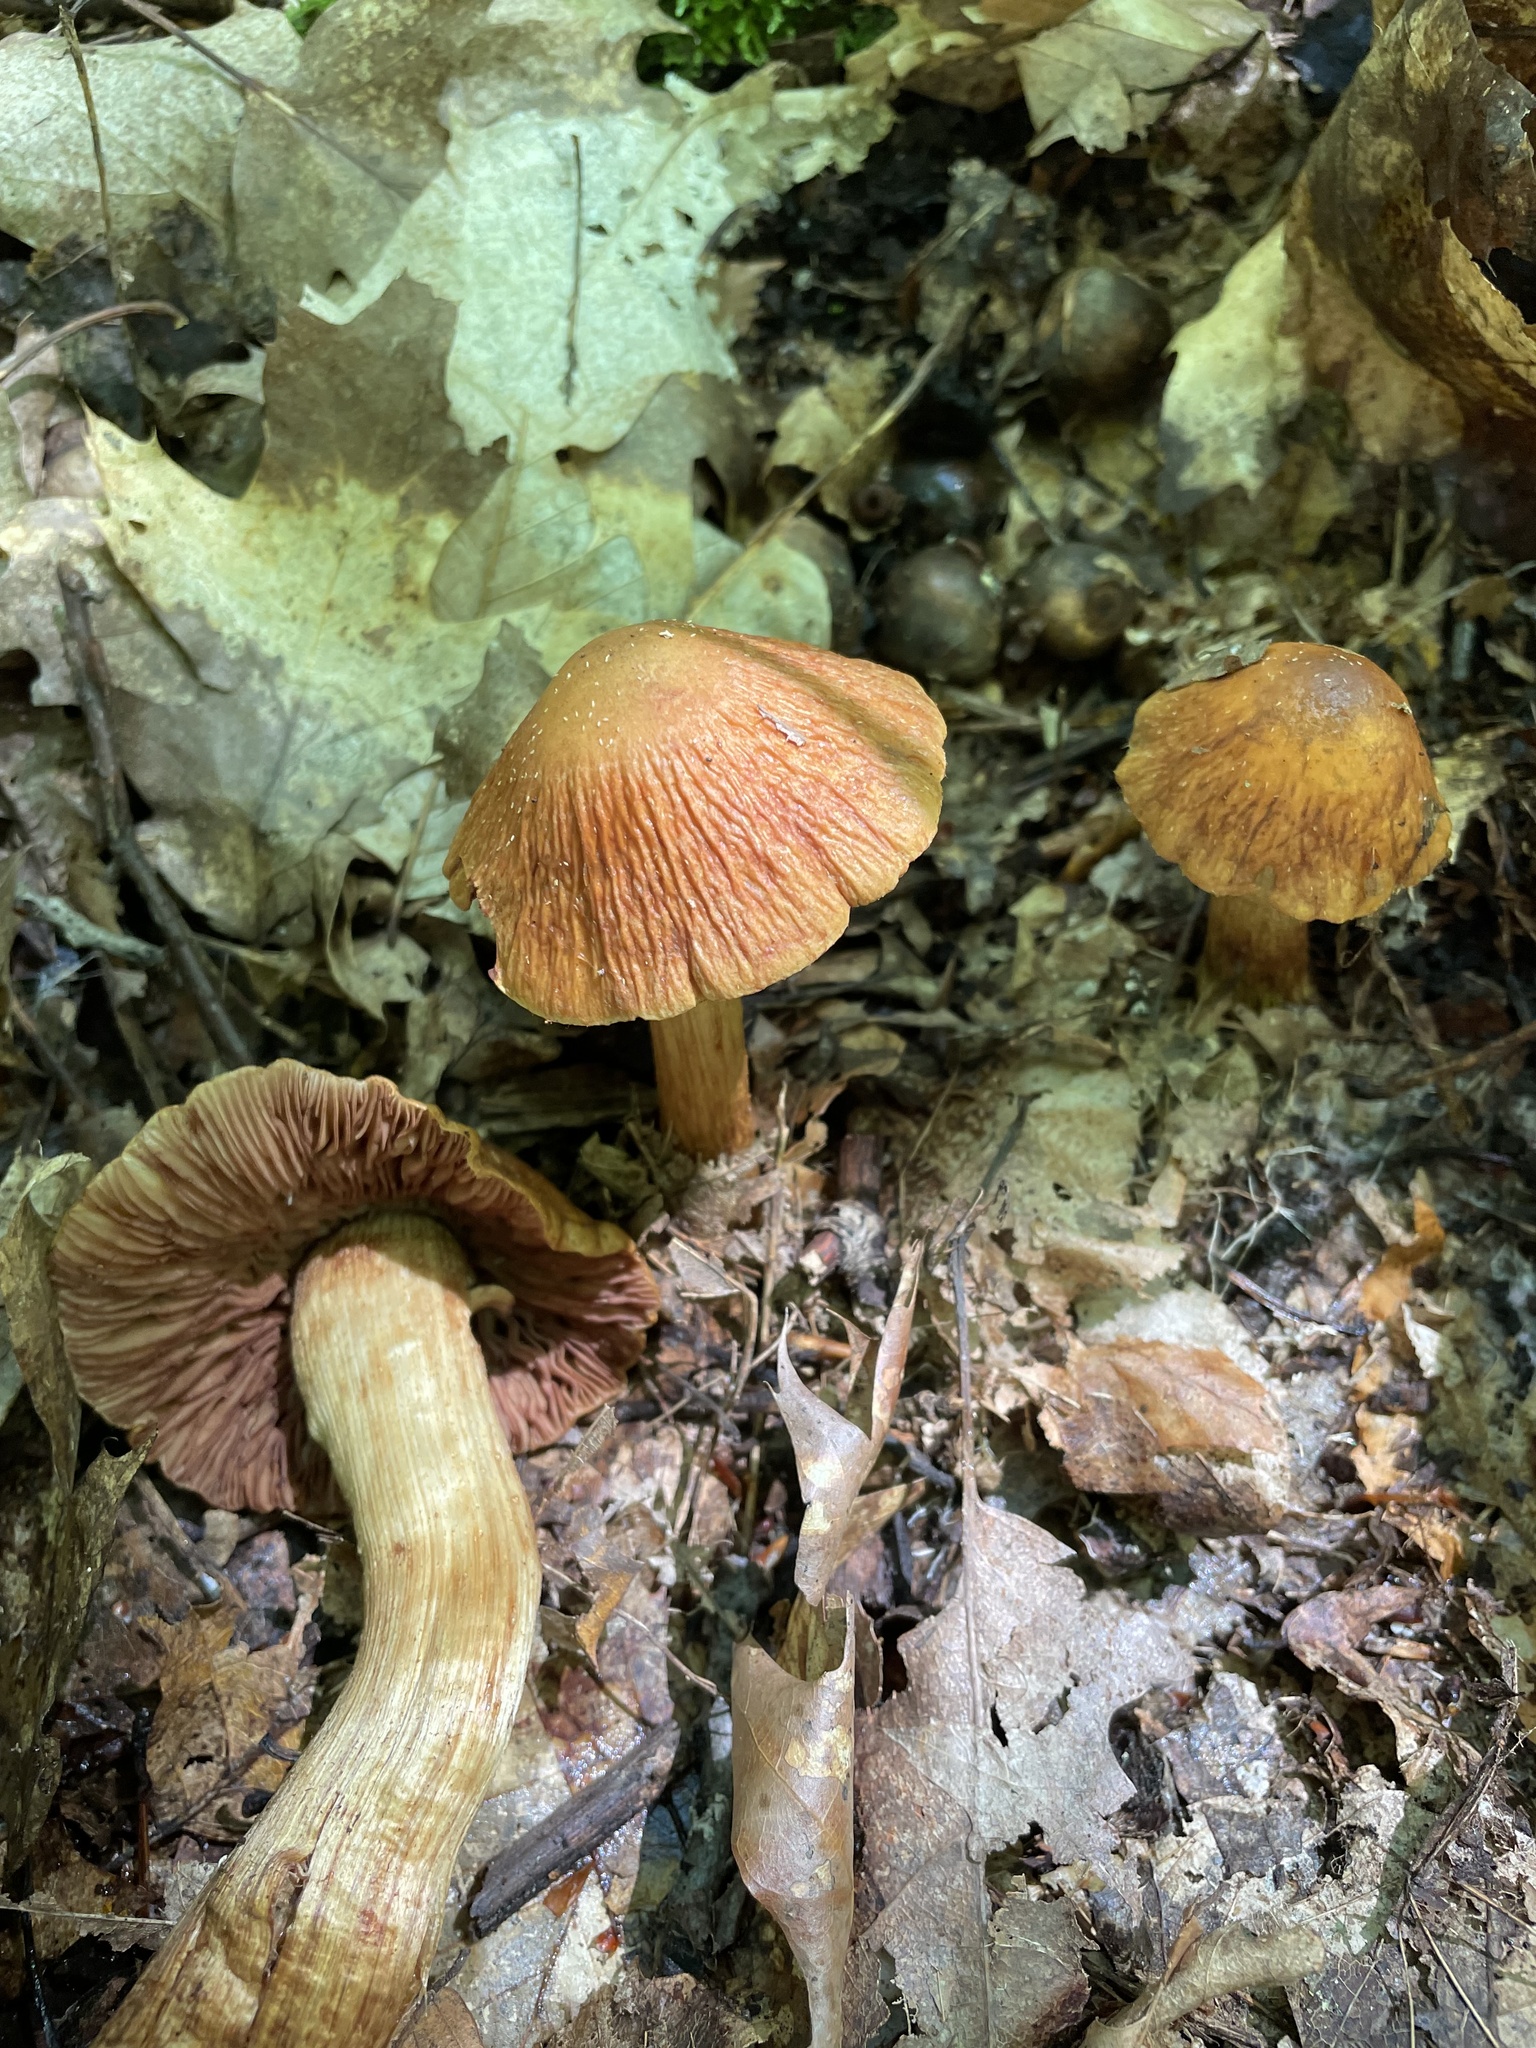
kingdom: Fungi
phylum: Basidiomycota
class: Agaricomycetes
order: Agaricales
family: Cortinariaceae
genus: Cortinarius
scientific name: Cortinarius corrugatus
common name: Wrinkled cortinarius
